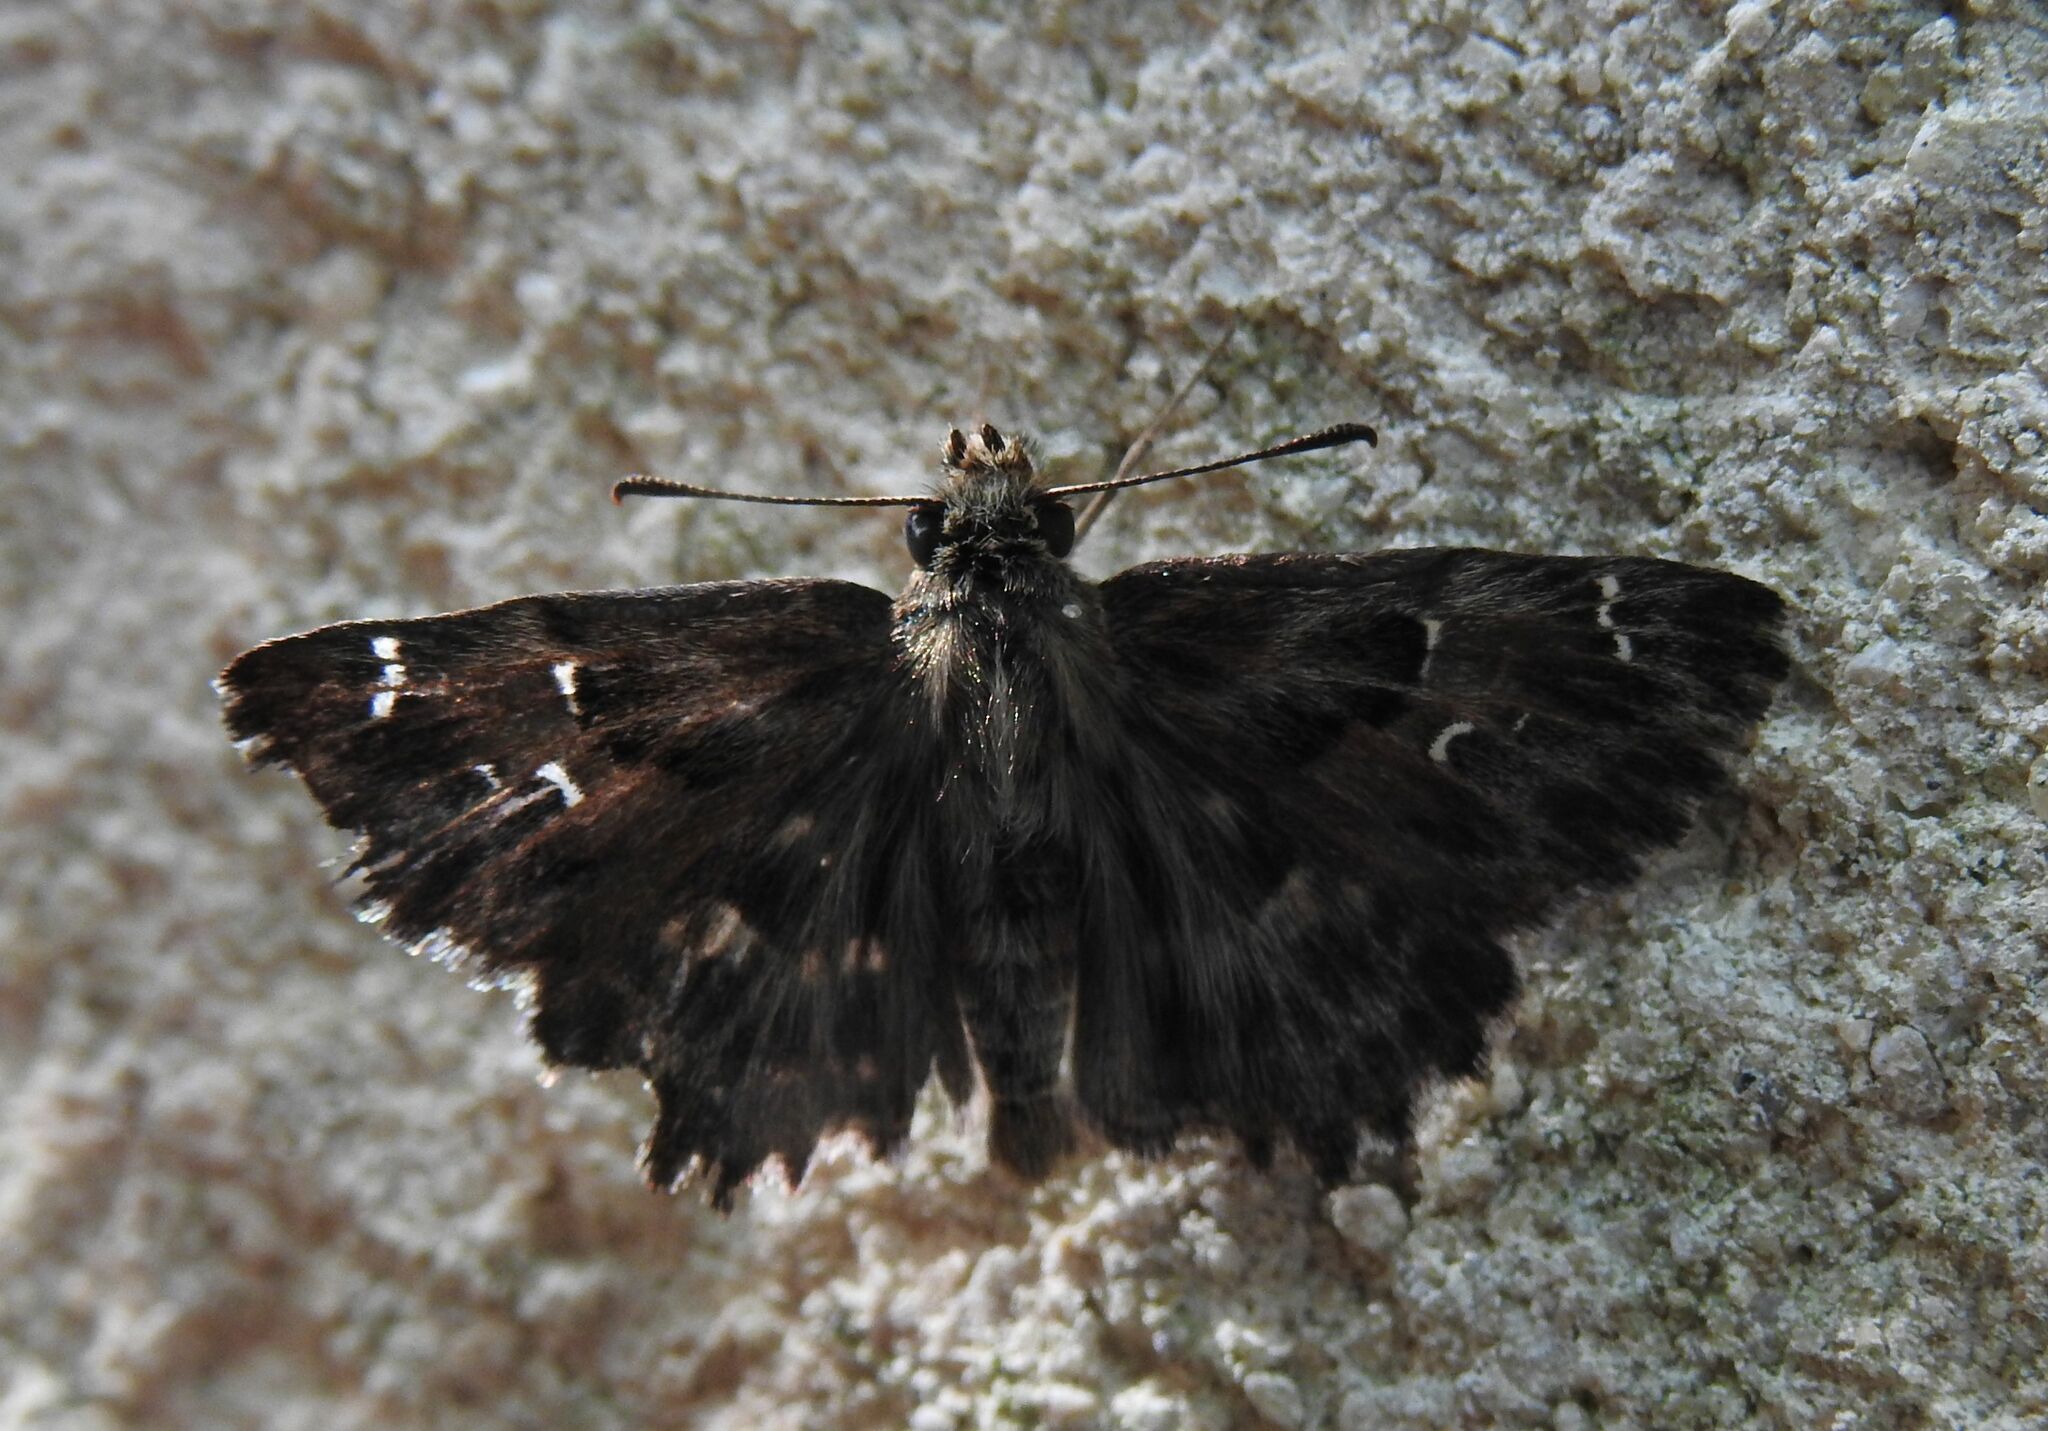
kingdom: Animalia
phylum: Arthropoda
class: Insecta
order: Lepidoptera
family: Hesperiidae
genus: Carcharodus
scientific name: Carcharodus alceae
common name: Mallow skipper
